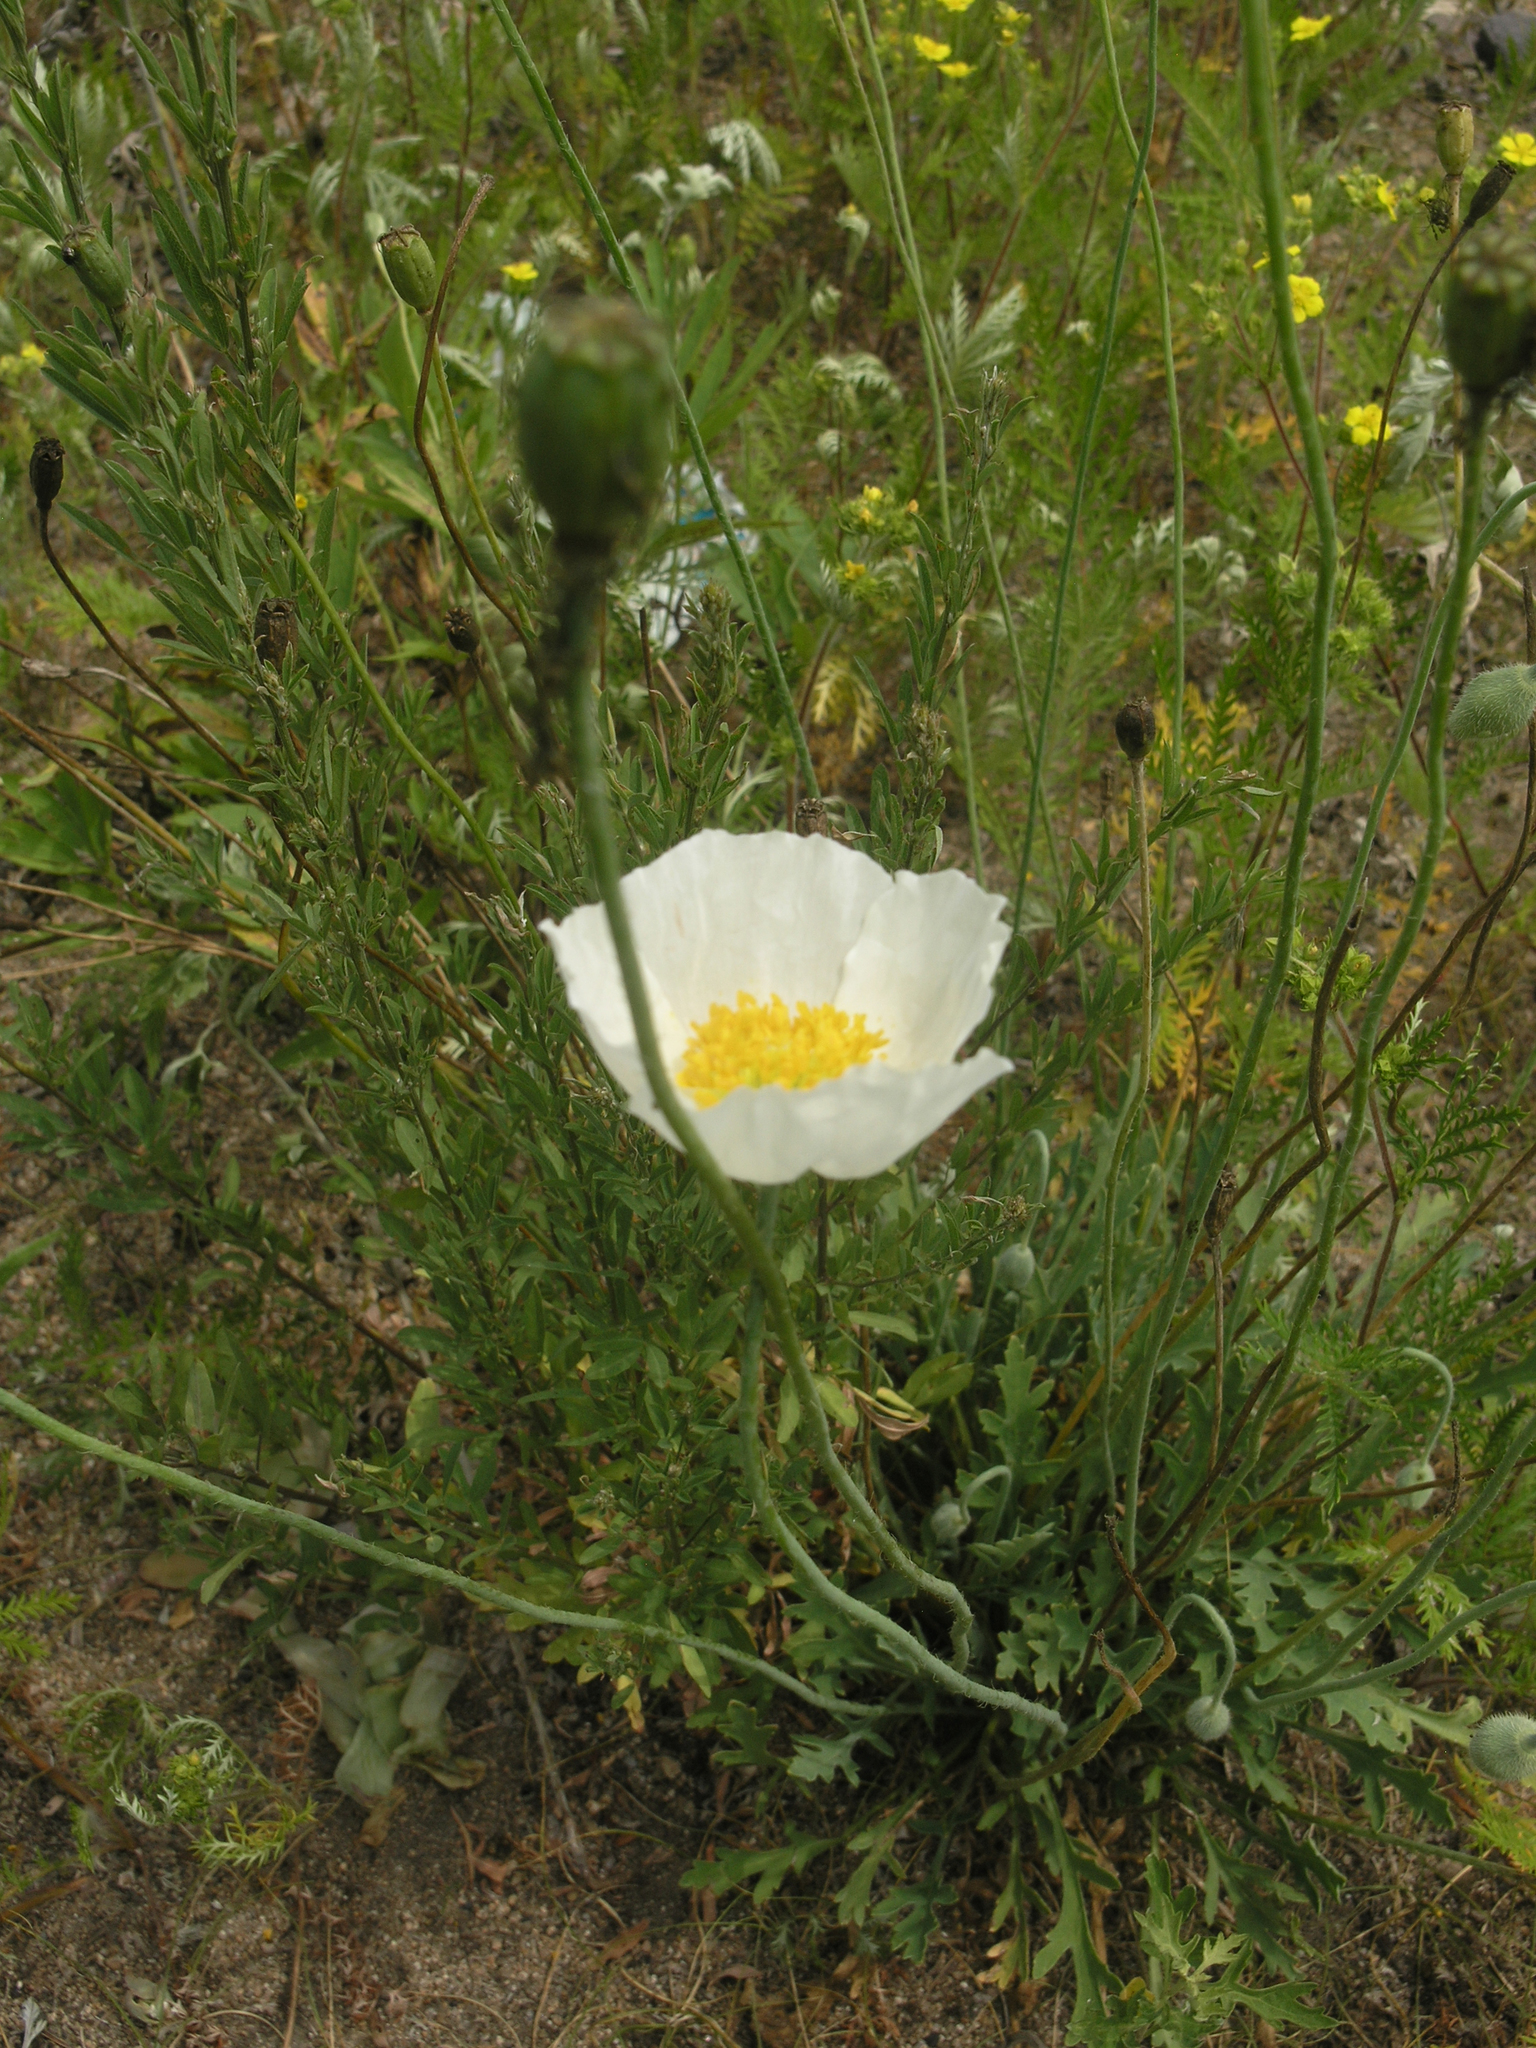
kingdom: Plantae
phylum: Tracheophyta
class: Magnoliopsida
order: Ranunculales
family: Papaveraceae
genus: Papaver
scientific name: Papaver croceum
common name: Siberian poppy
